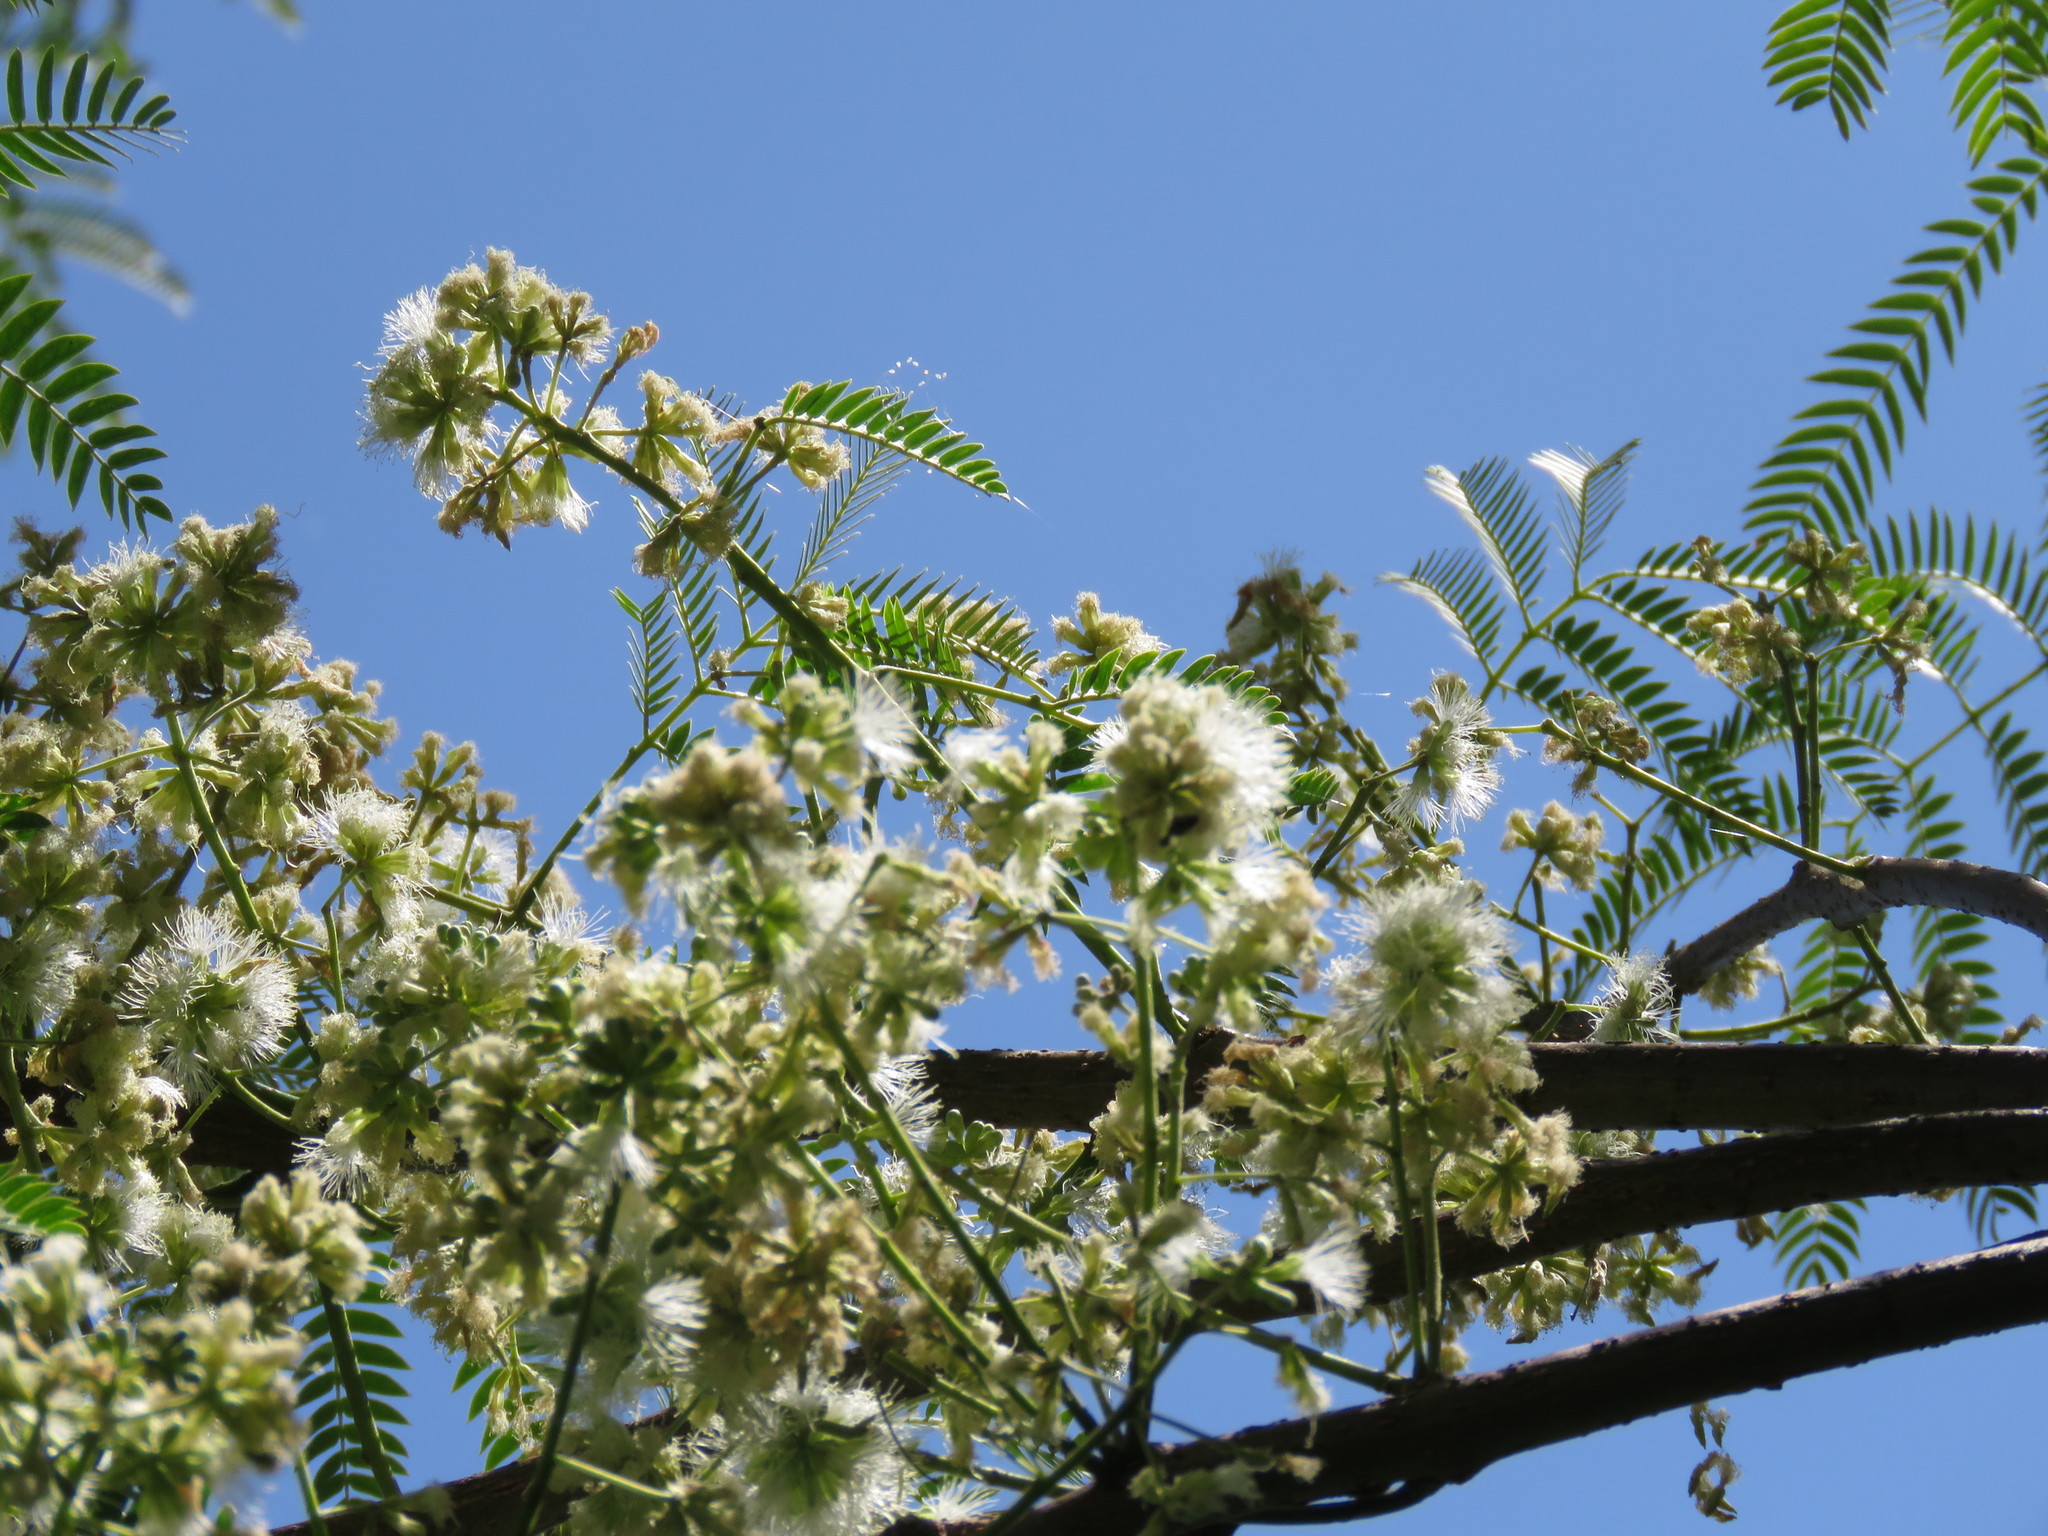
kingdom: Plantae
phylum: Tracheophyta
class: Magnoliopsida
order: Fabales
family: Fabaceae
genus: Enterolobium
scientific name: Enterolobium contortisiliquum
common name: Pacara earpod tree
